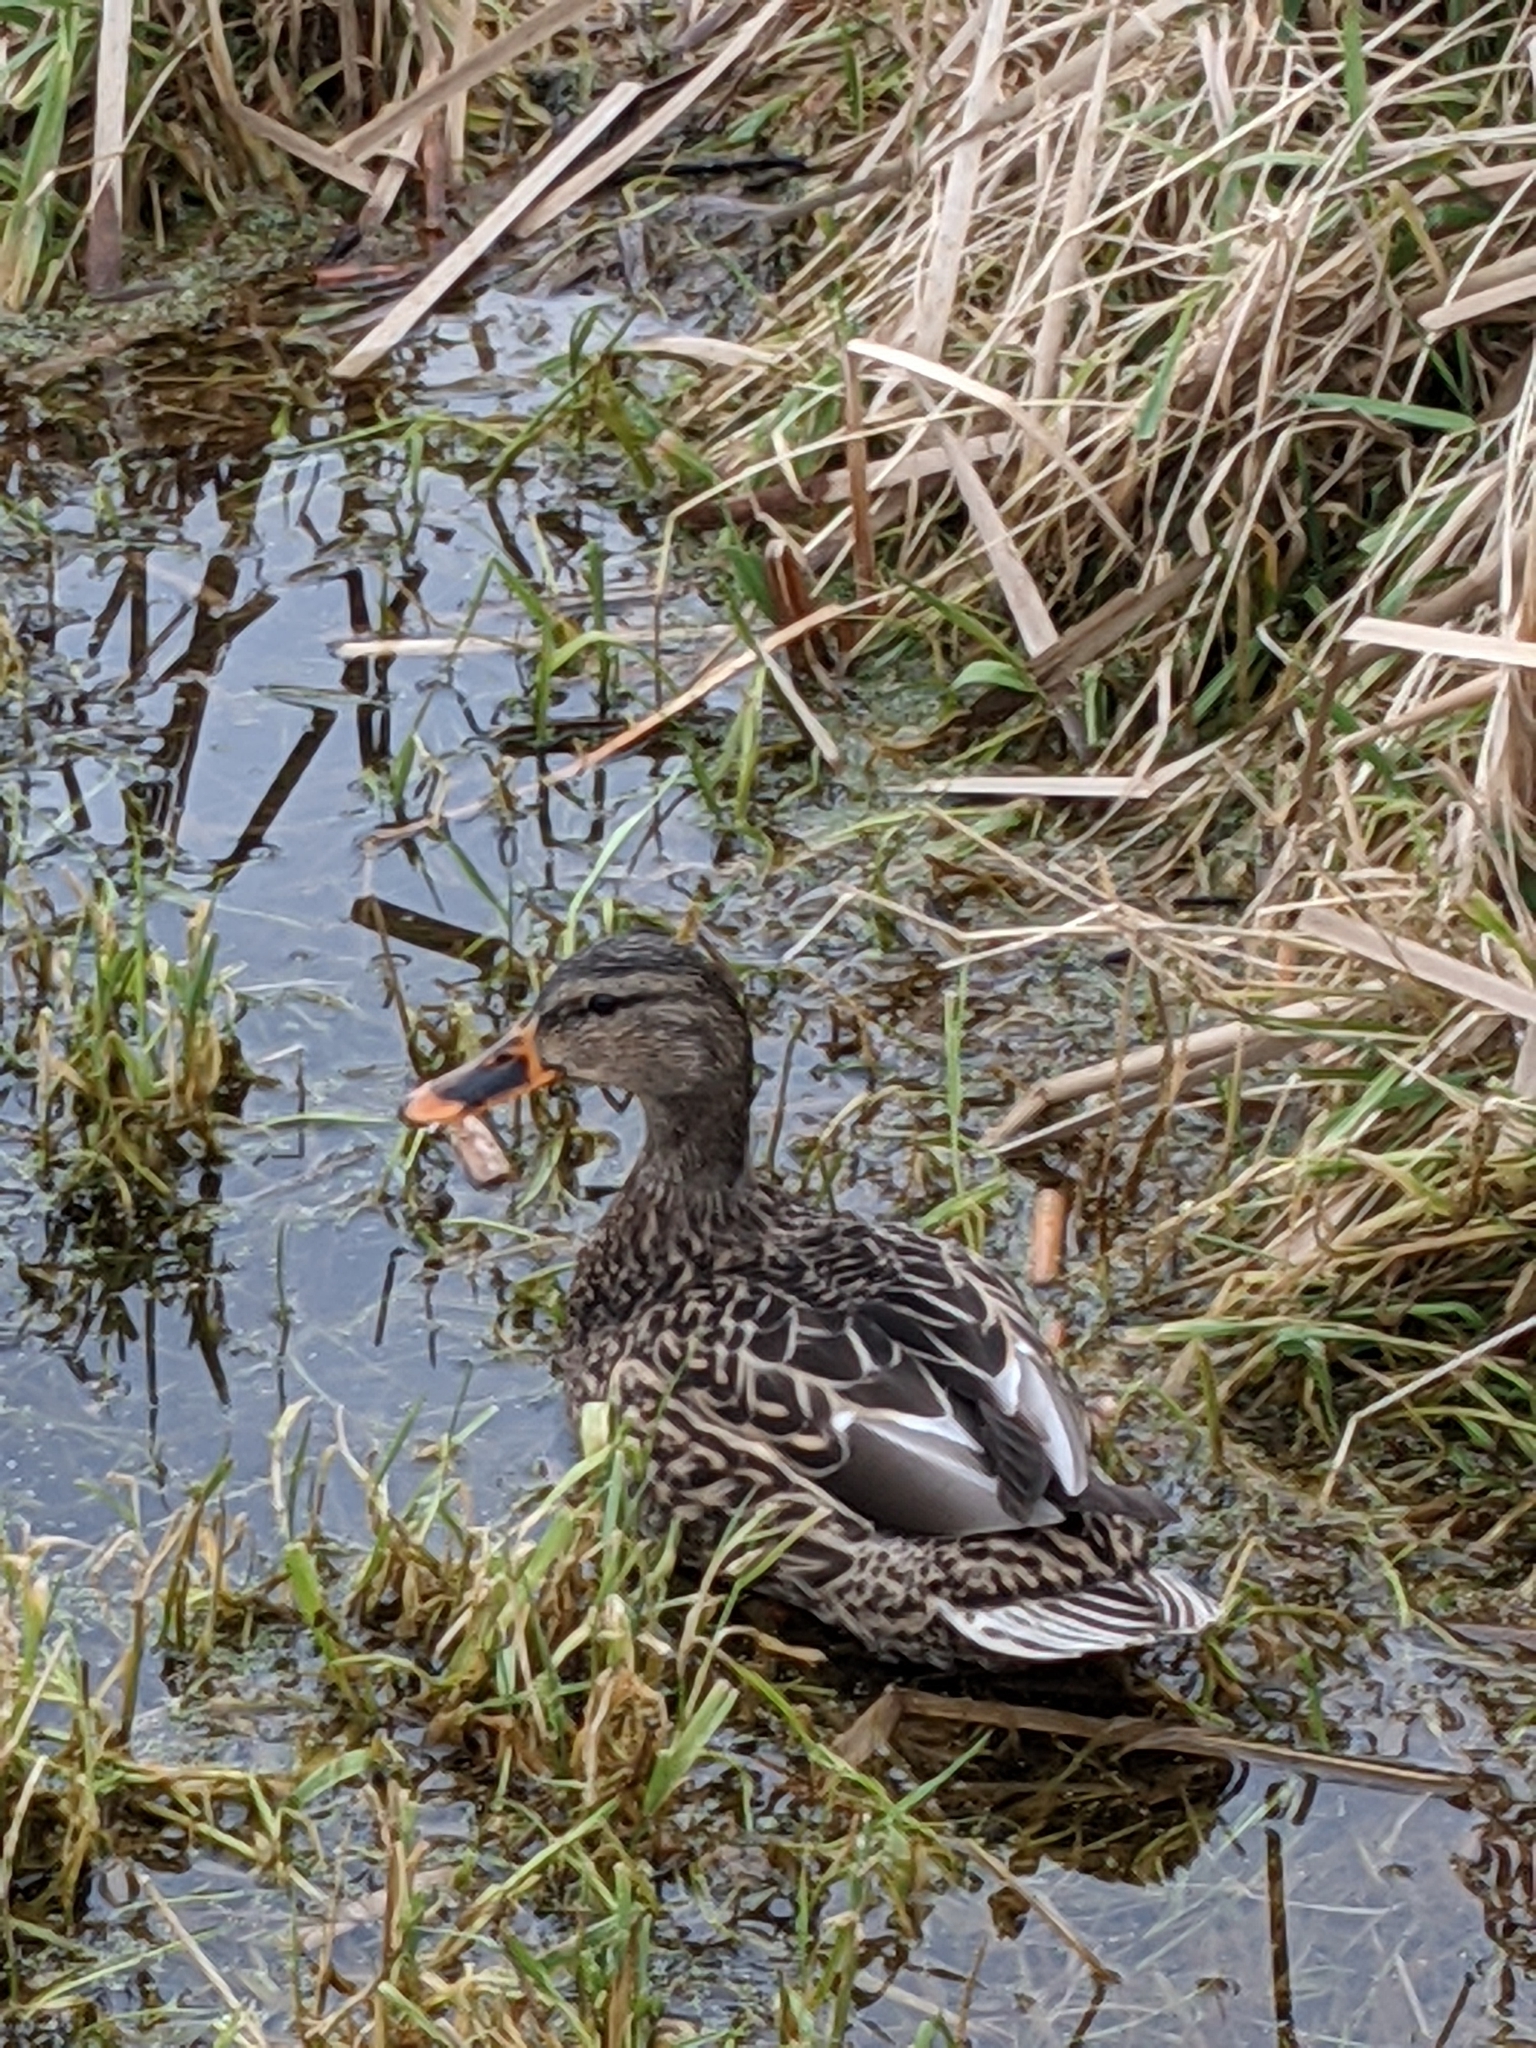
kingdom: Animalia
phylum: Chordata
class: Aves
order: Anseriformes
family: Anatidae
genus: Anas
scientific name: Anas platyrhynchos
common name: Mallard
